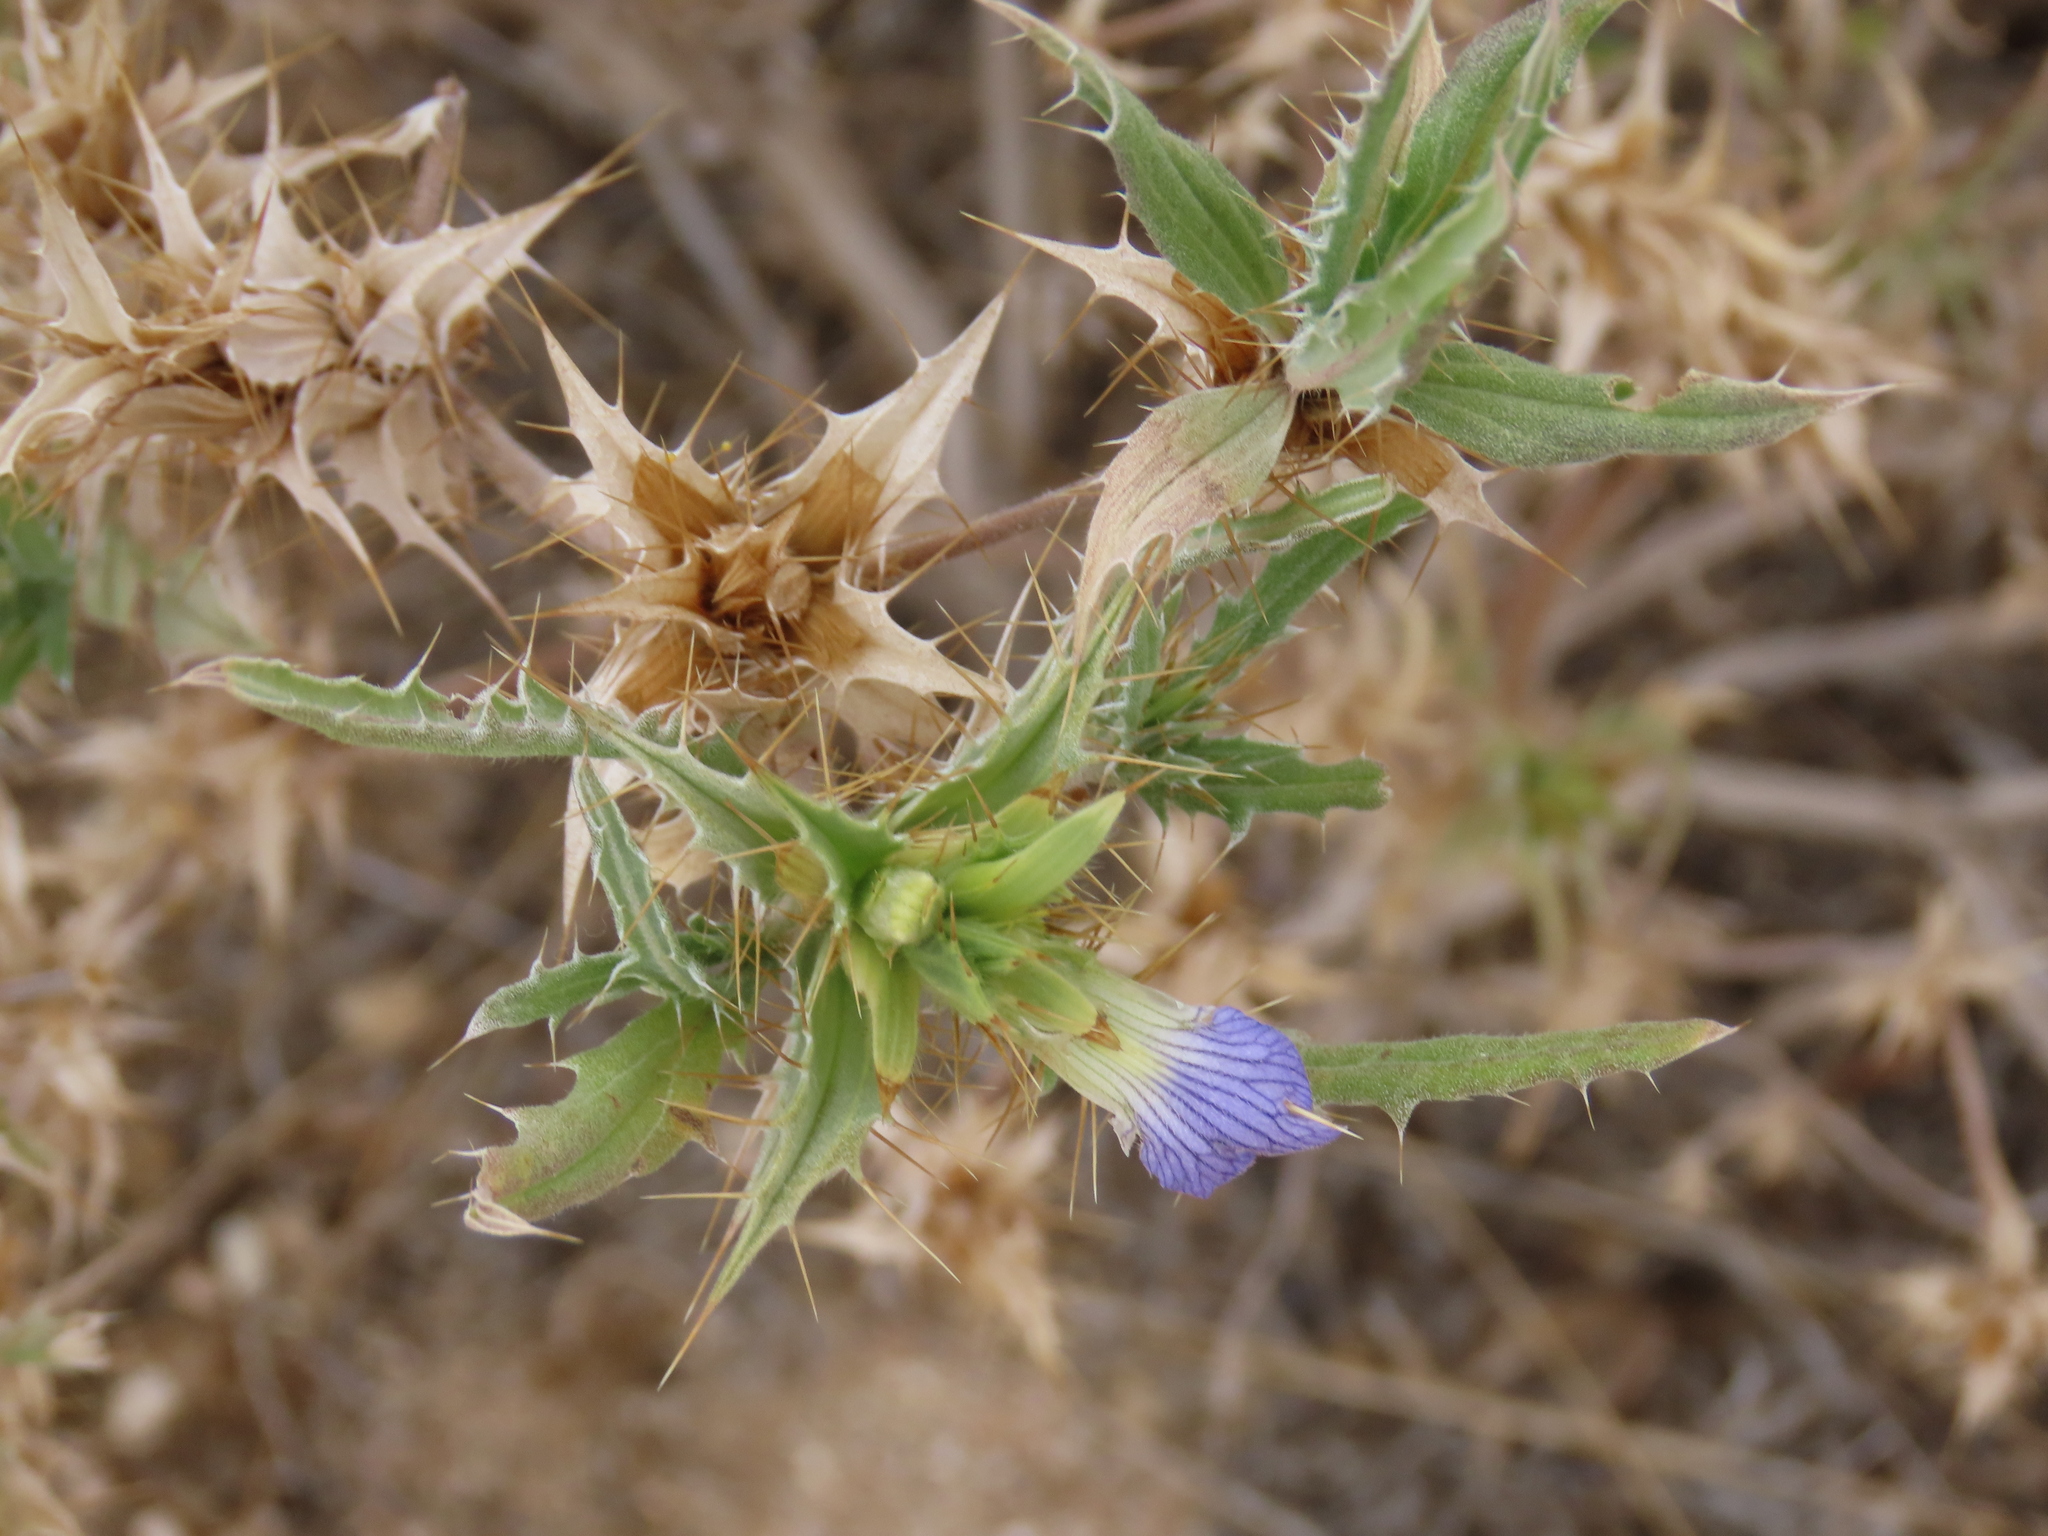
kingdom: Plantae
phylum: Tracheophyta
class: Magnoliopsida
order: Lamiales
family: Acanthaceae
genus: Blepharis
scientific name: Blepharis obmitrata
